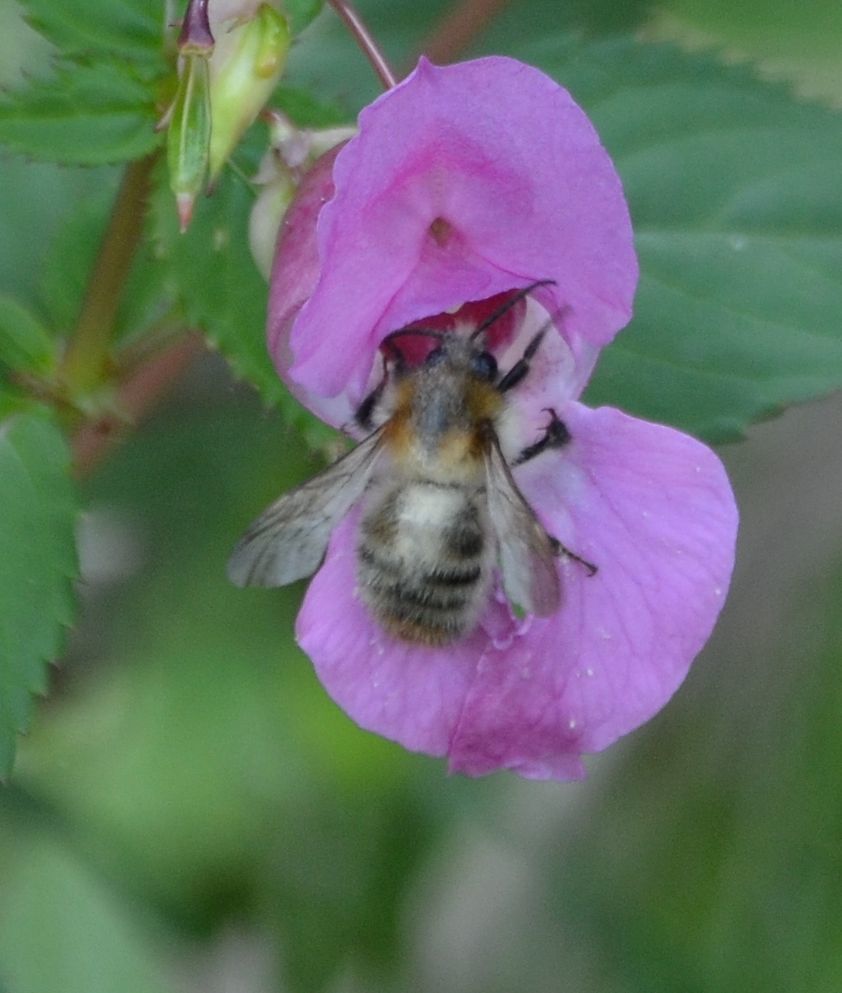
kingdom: Animalia
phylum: Arthropoda
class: Insecta
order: Hymenoptera
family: Apidae
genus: Bombus
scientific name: Bombus pascuorum
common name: Common carder bee
